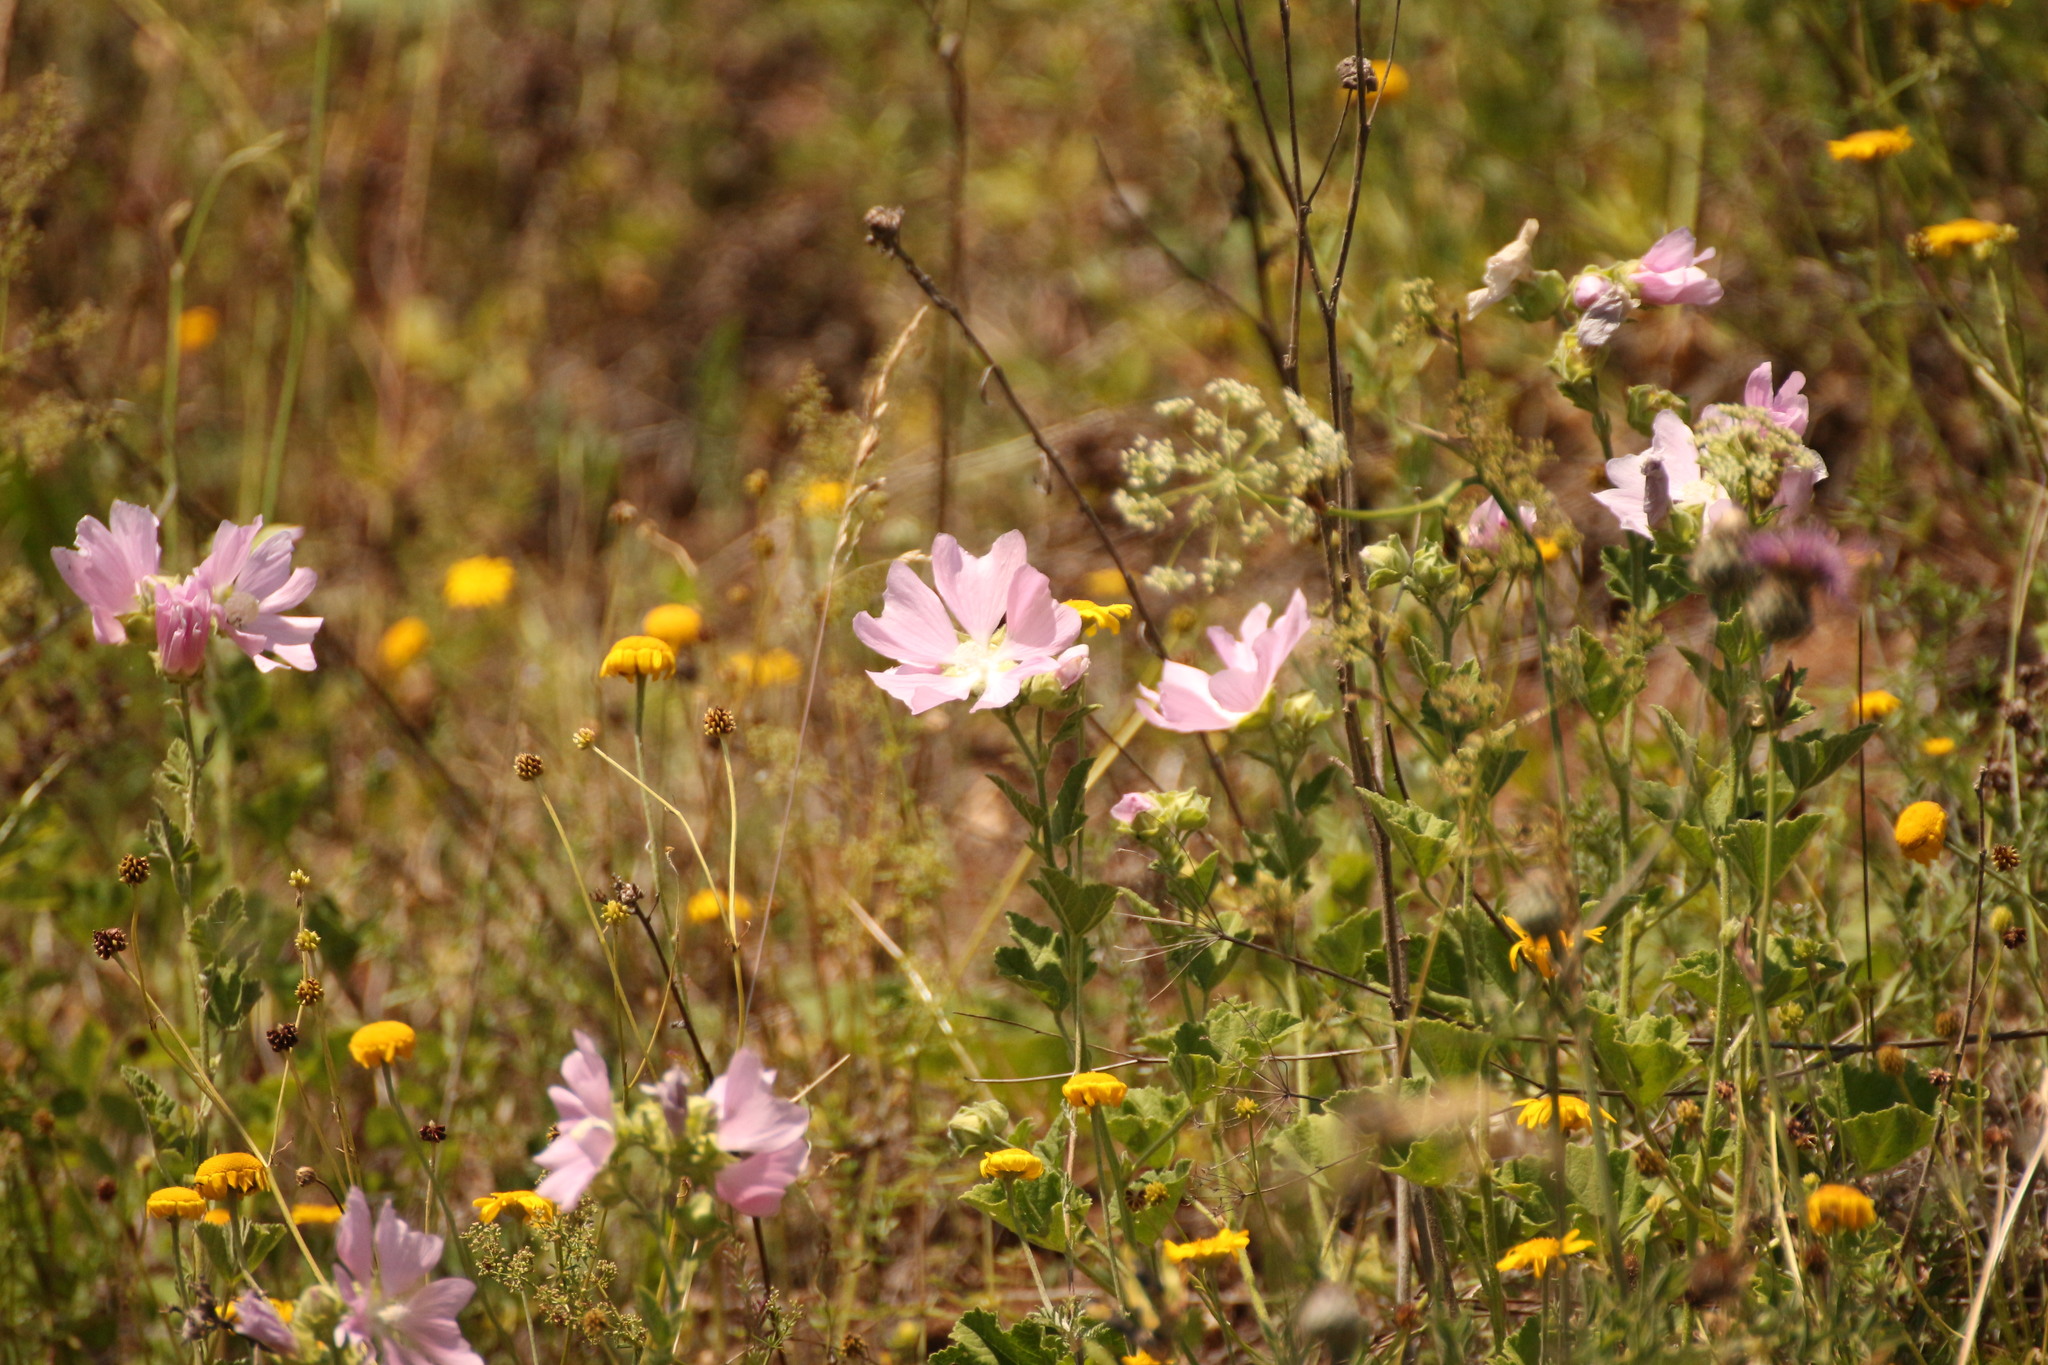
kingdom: Plantae
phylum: Tracheophyta
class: Magnoliopsida
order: Malvales
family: Malvaceae
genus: Malva
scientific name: Malva thuringiaca
